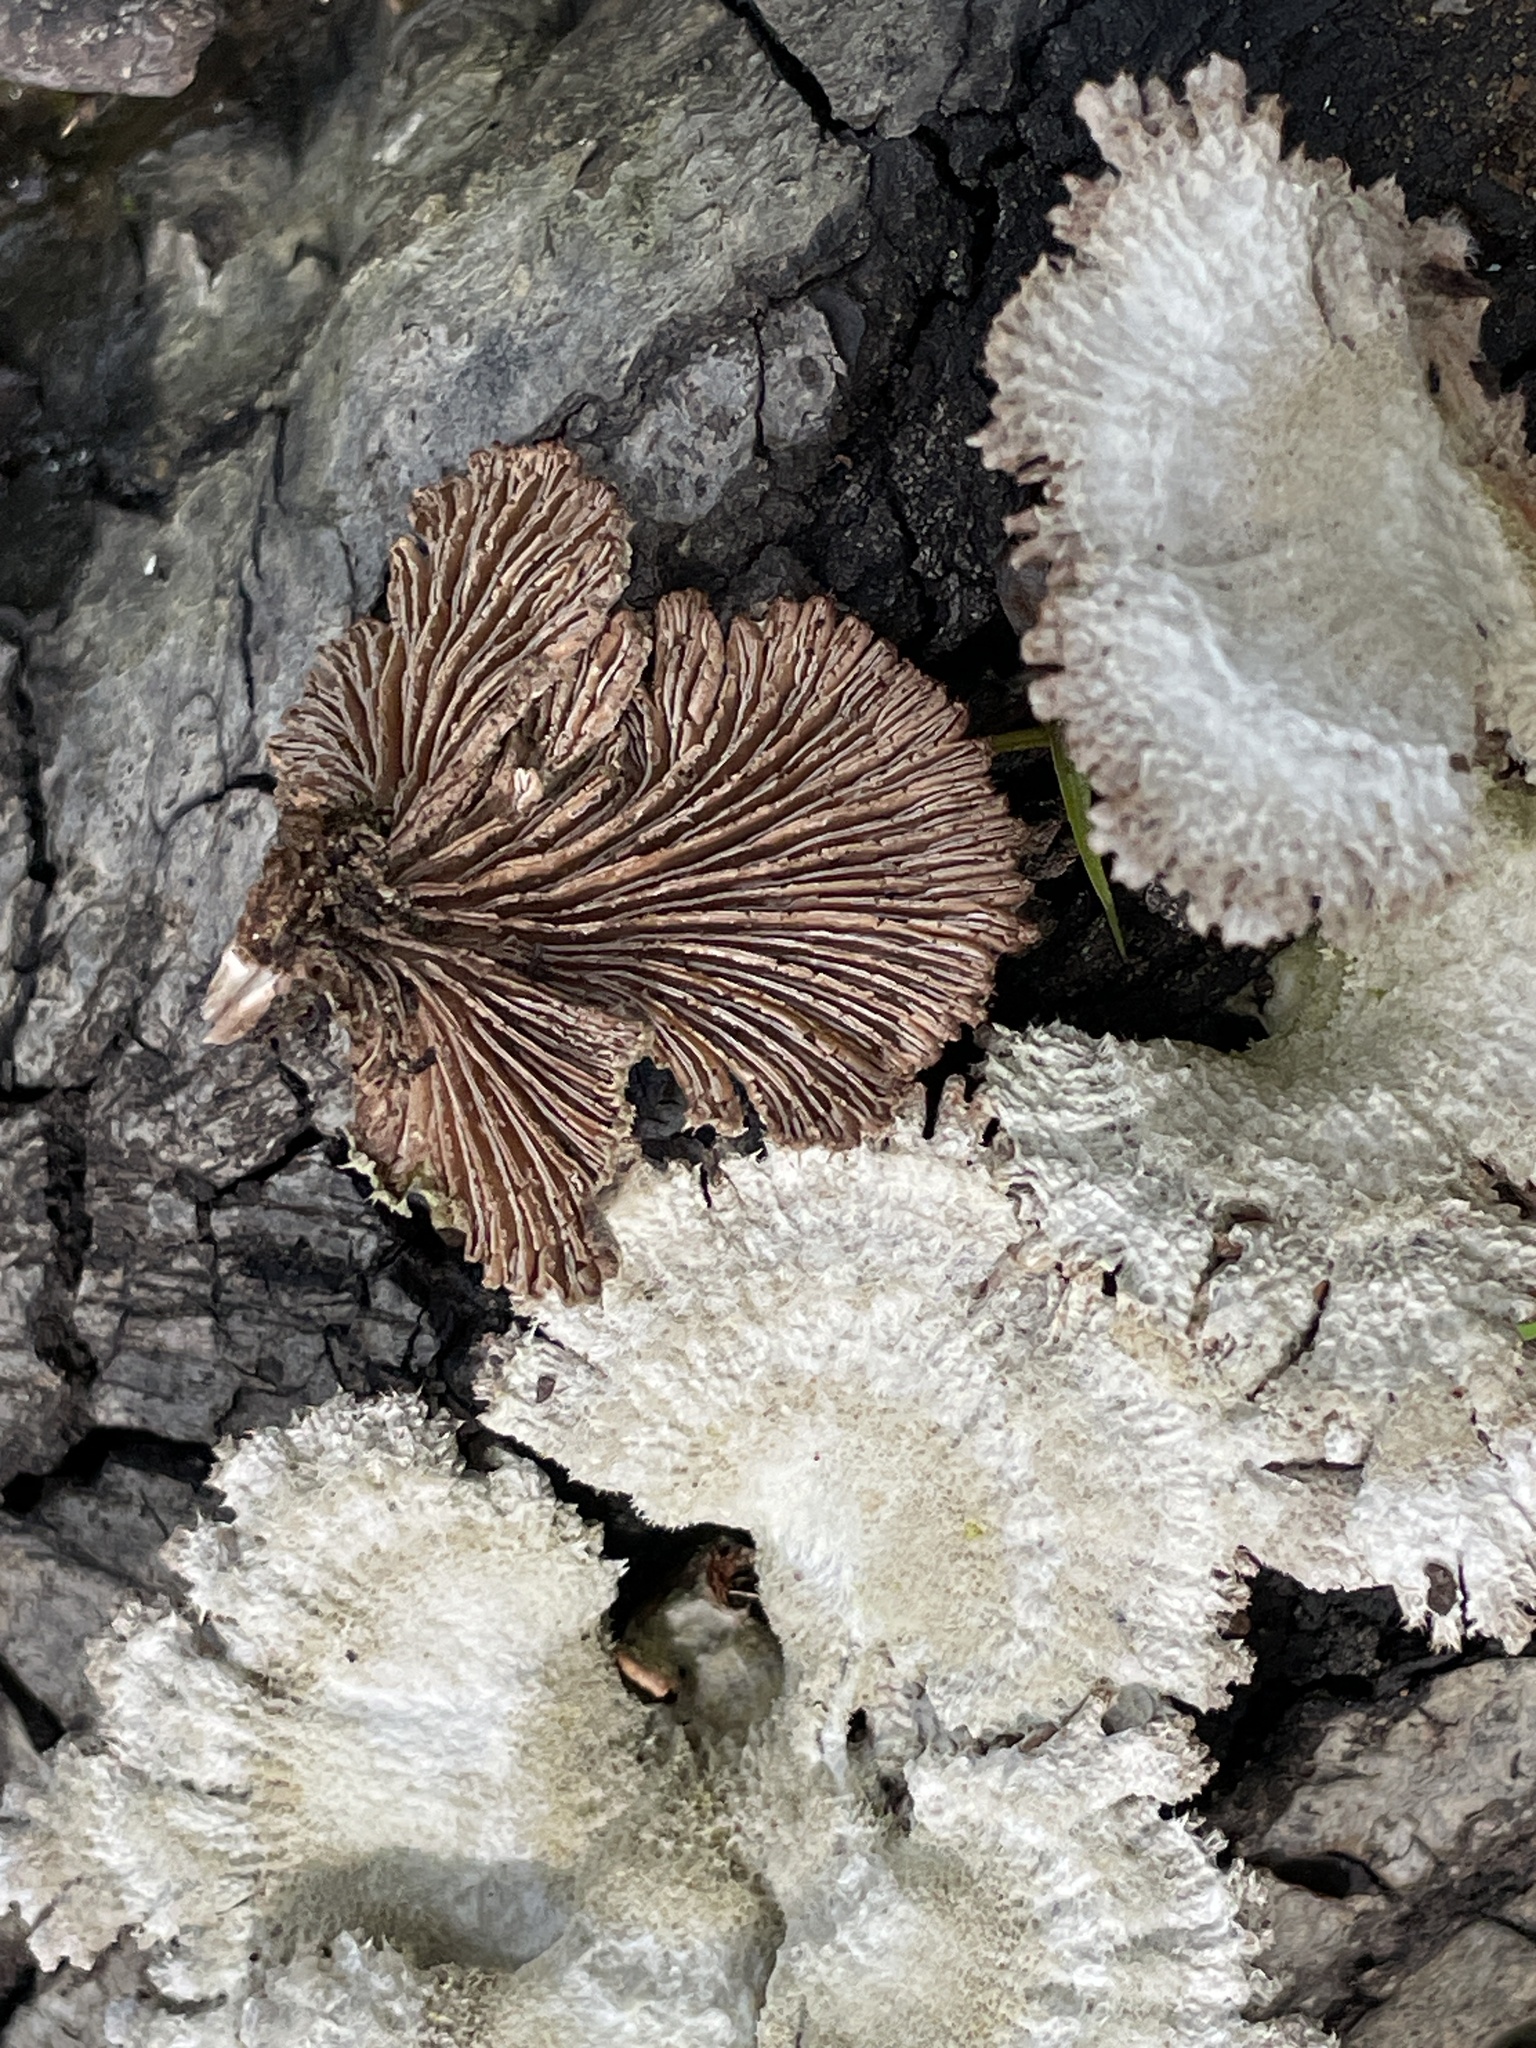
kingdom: Fungi
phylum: Basidiomycota
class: Agaricomycetes
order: Agaricales
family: Schizophyllaceae
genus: Schizophyllum
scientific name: Schizophyllum commune
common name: Common porecrust
